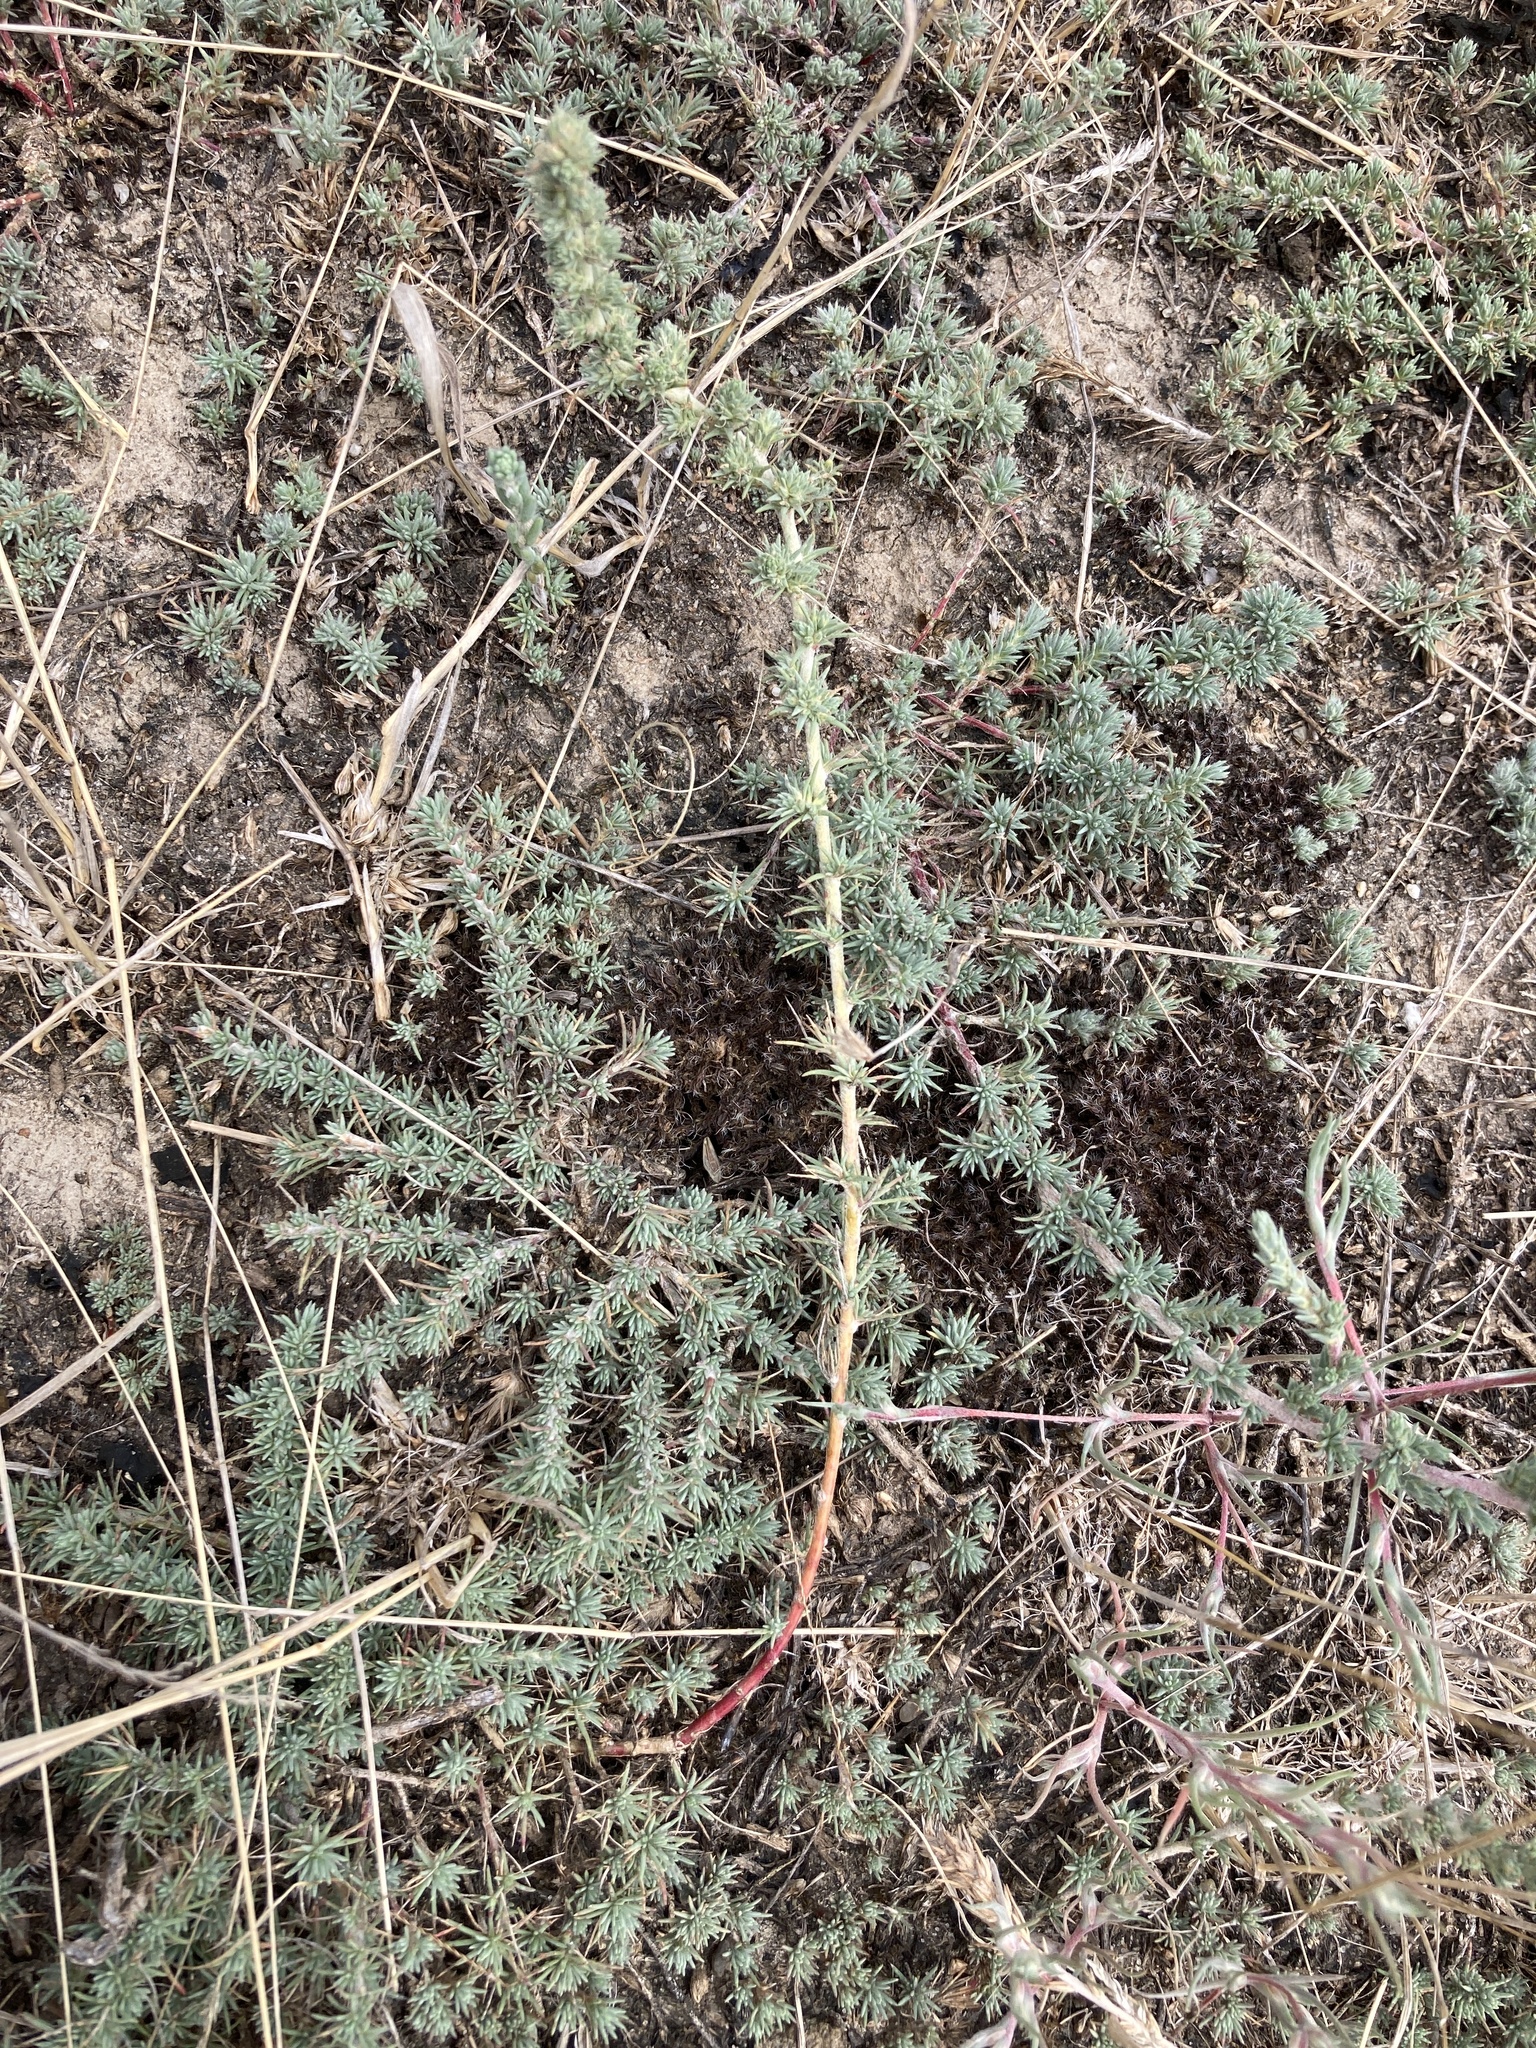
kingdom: Plantae
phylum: Tracheophyta
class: Magnoliopsida
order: Caryophyllales
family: Amaranthaceae
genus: Bassia
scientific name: Bassia prostrata
